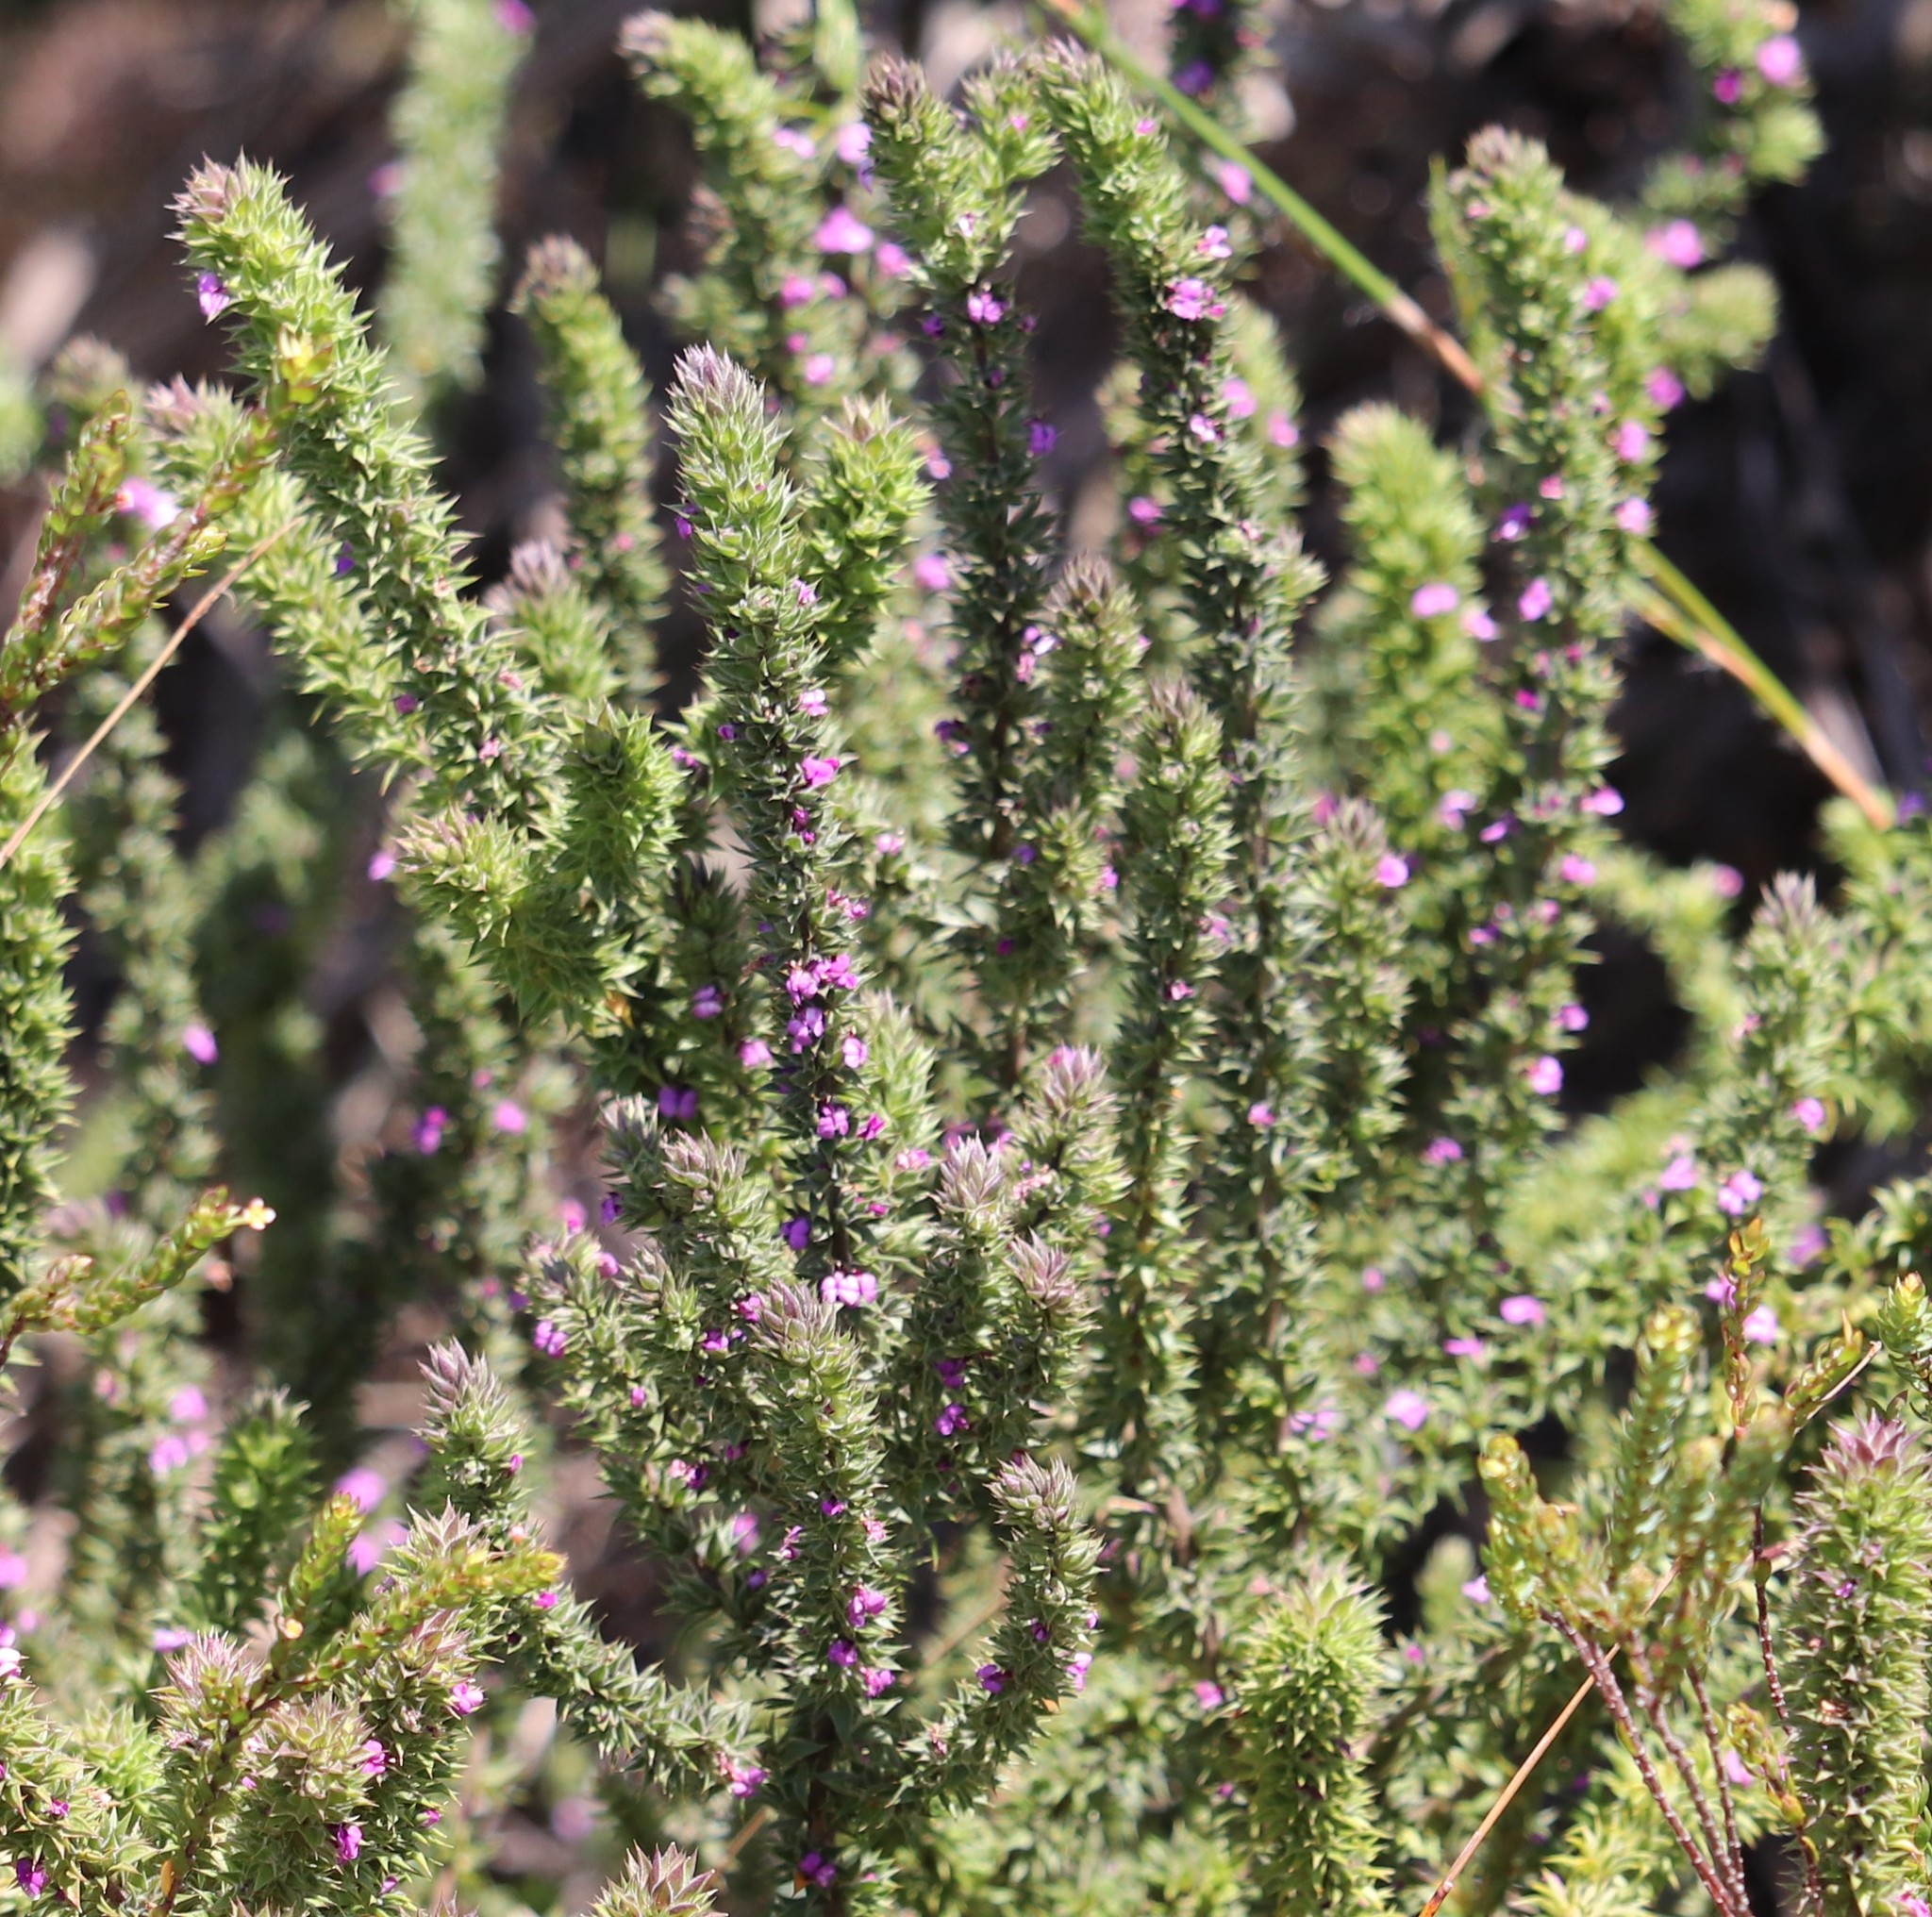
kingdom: Plantae
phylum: Tracheophyta
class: Magnoliopsida
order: Fabales
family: Polygalaceae
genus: Muraltia
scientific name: Muraltia alopecuroides
